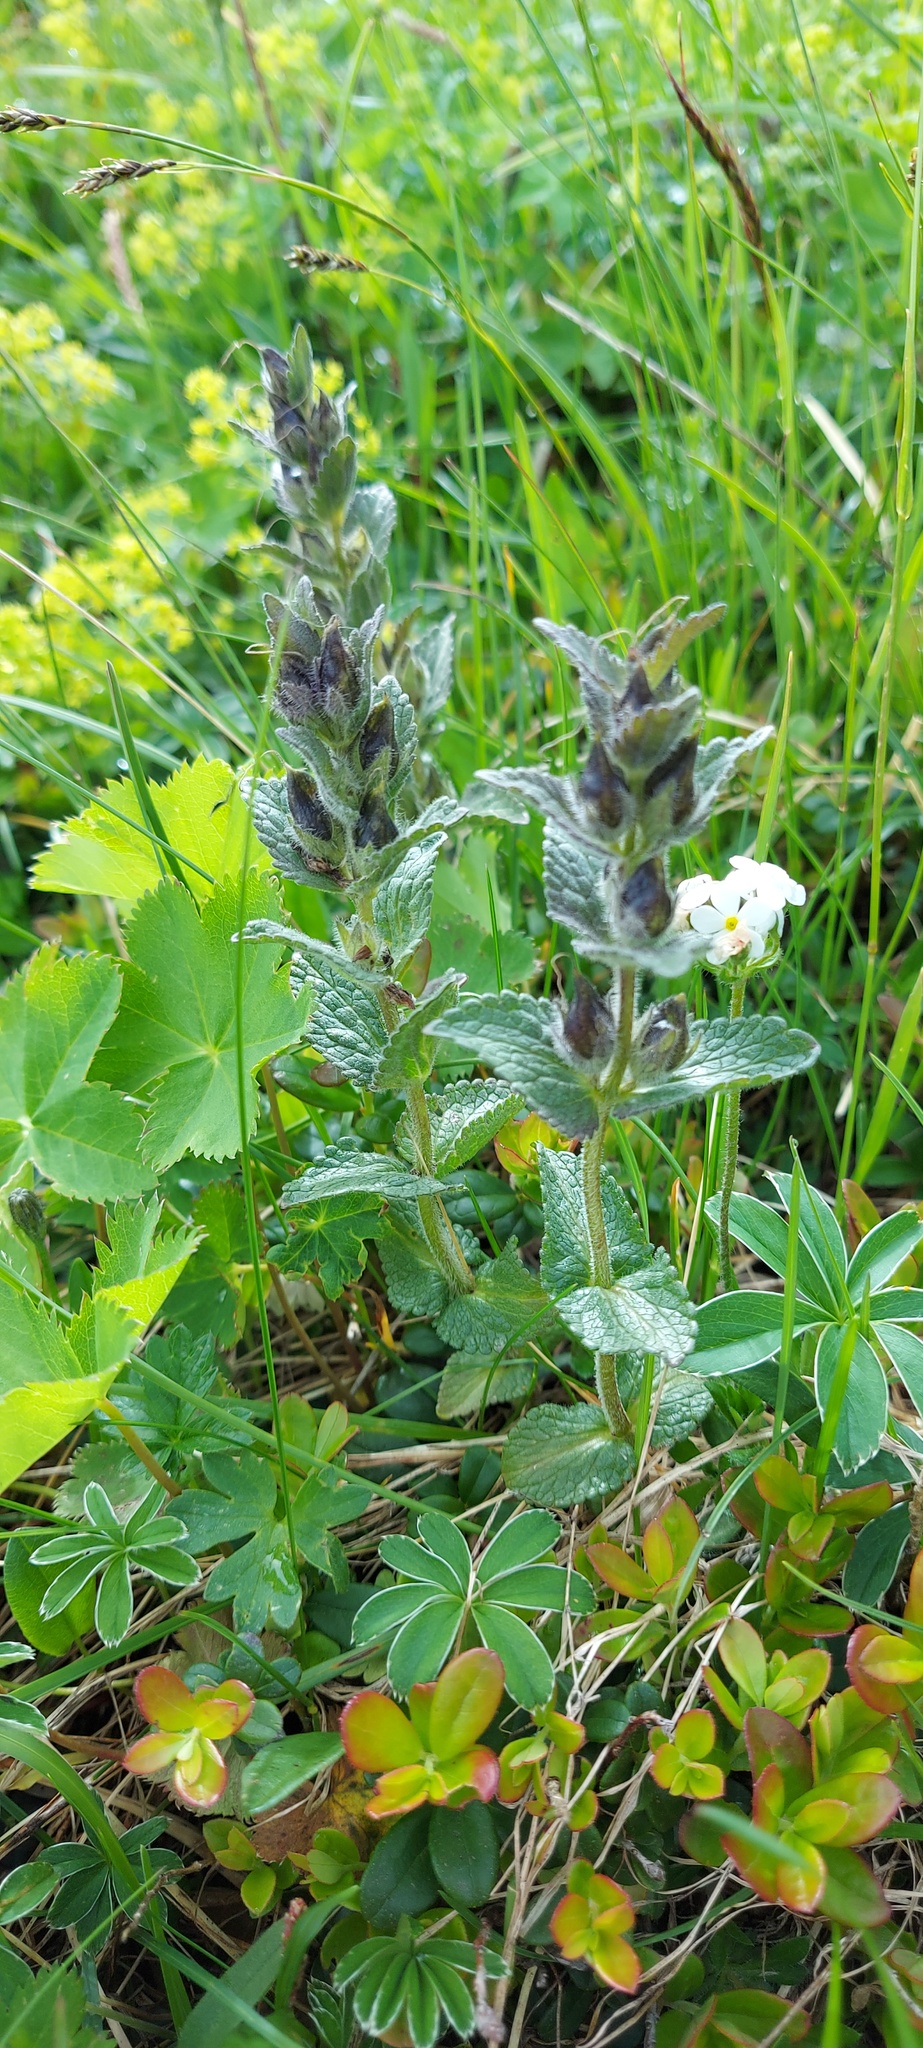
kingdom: Plantae
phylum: Tracheophyta
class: Magnoliopsida
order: Lamiales
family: Orobanchaceae
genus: Bartsia
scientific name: Bartsia alpina
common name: Alpine bartsia
